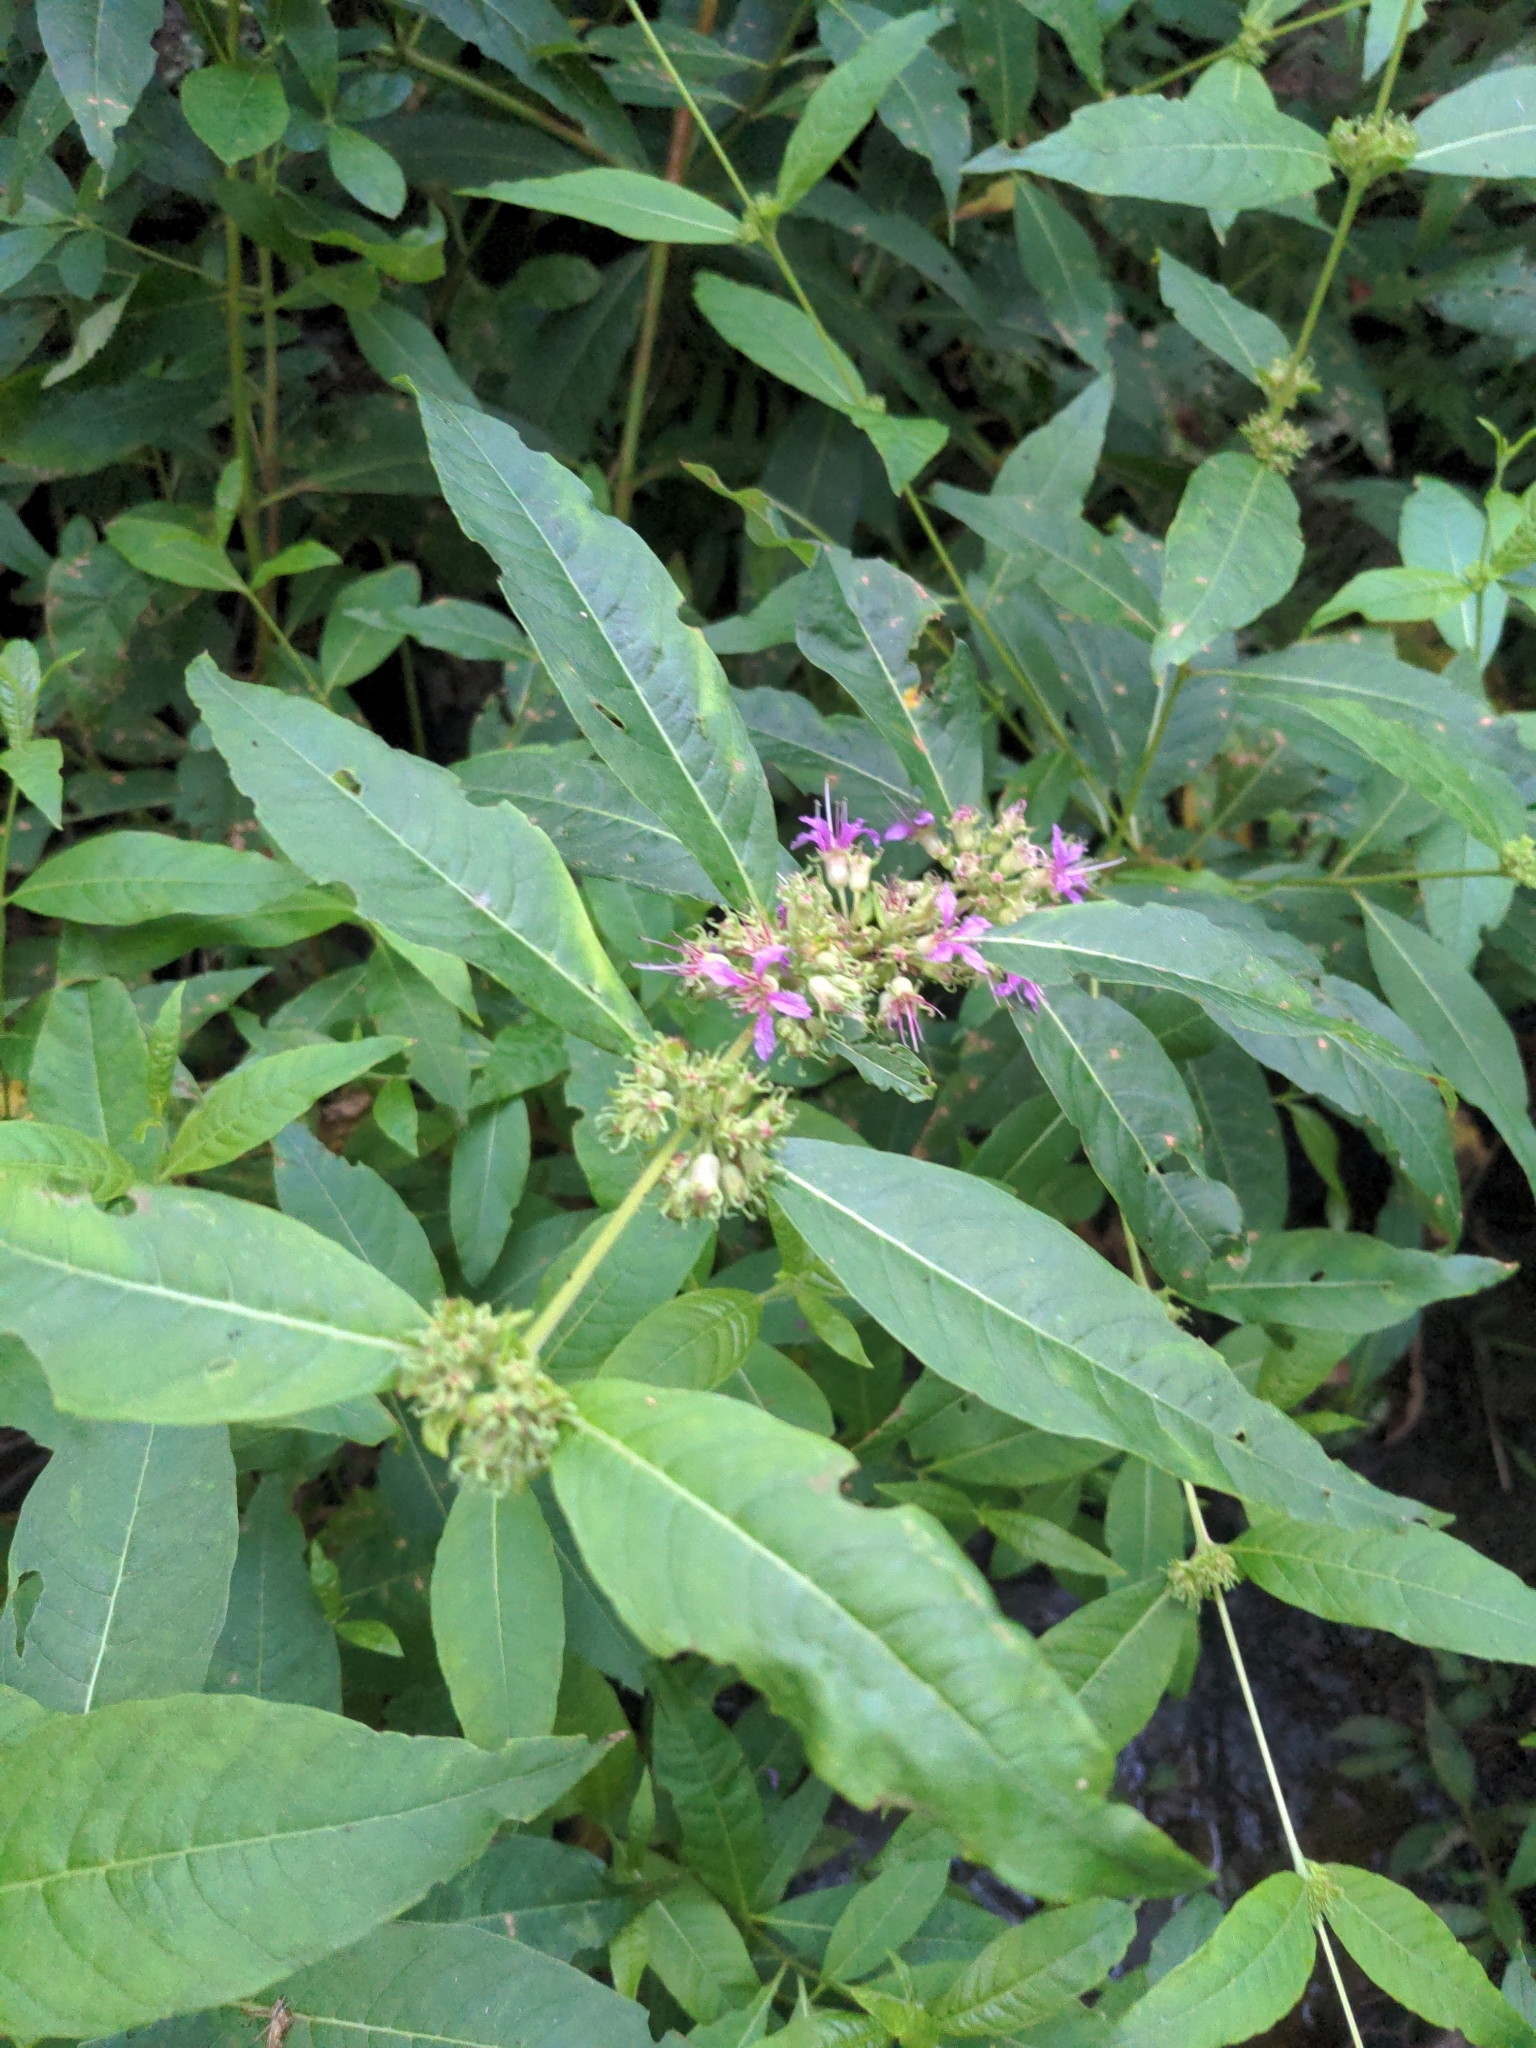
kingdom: Plantae
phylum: Tracheophyta
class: Magnoliopsida
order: Myrtales
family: Lythraceae
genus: Decodon
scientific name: Decodon verticillatus
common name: Hairy swamp loosestrife
